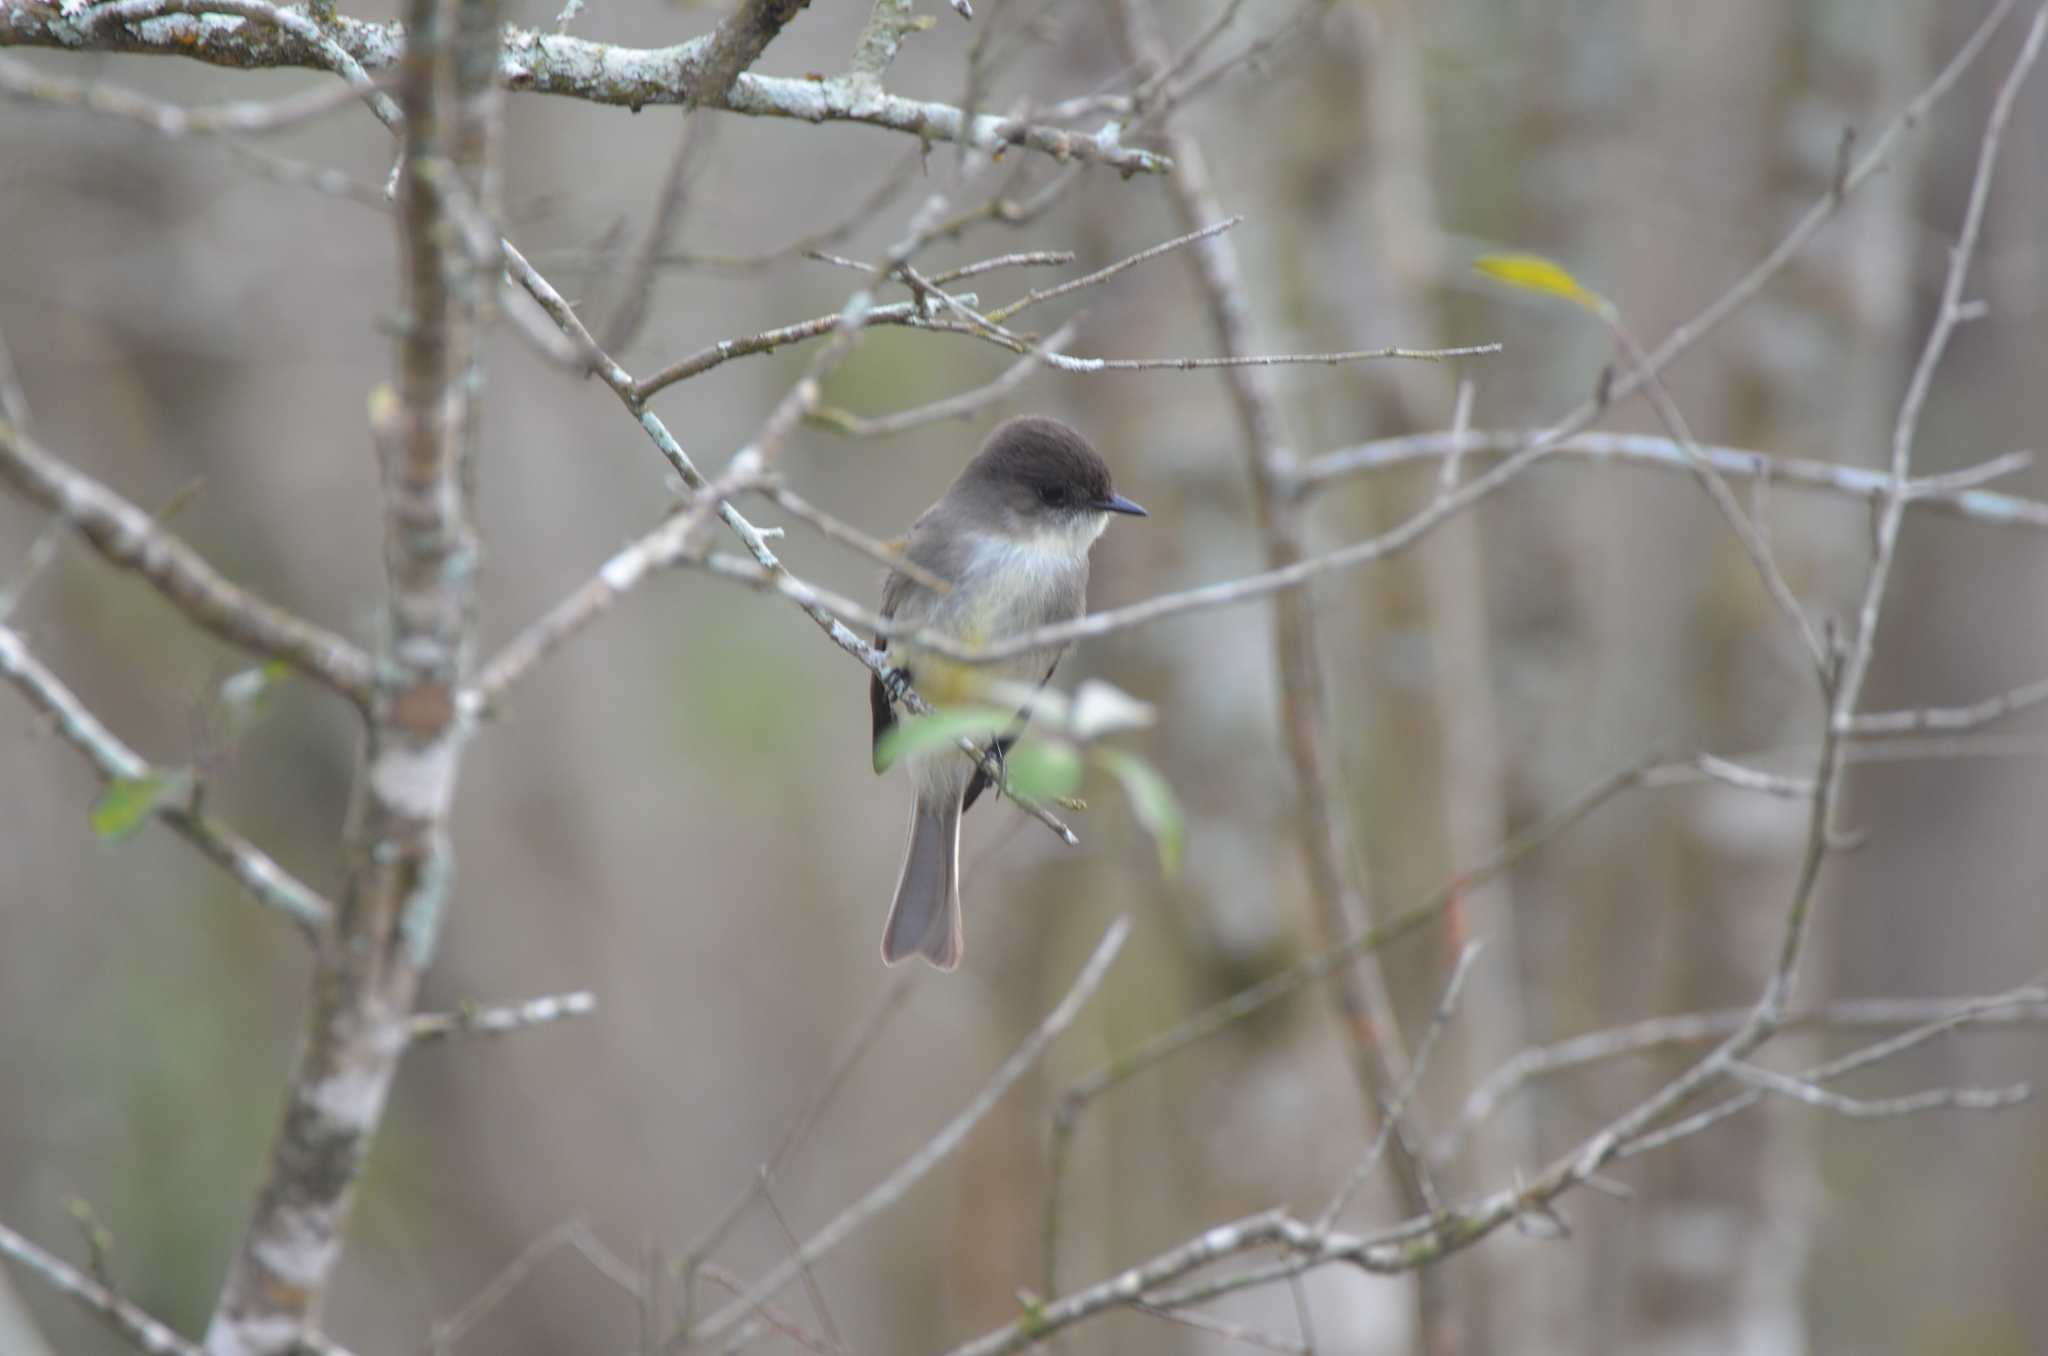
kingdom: Animalia
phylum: Chordata
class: Aves
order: Passeriformes
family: Tyrannidae
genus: Sayornis
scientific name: Sayornis phoebe
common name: Eastern phoebe
